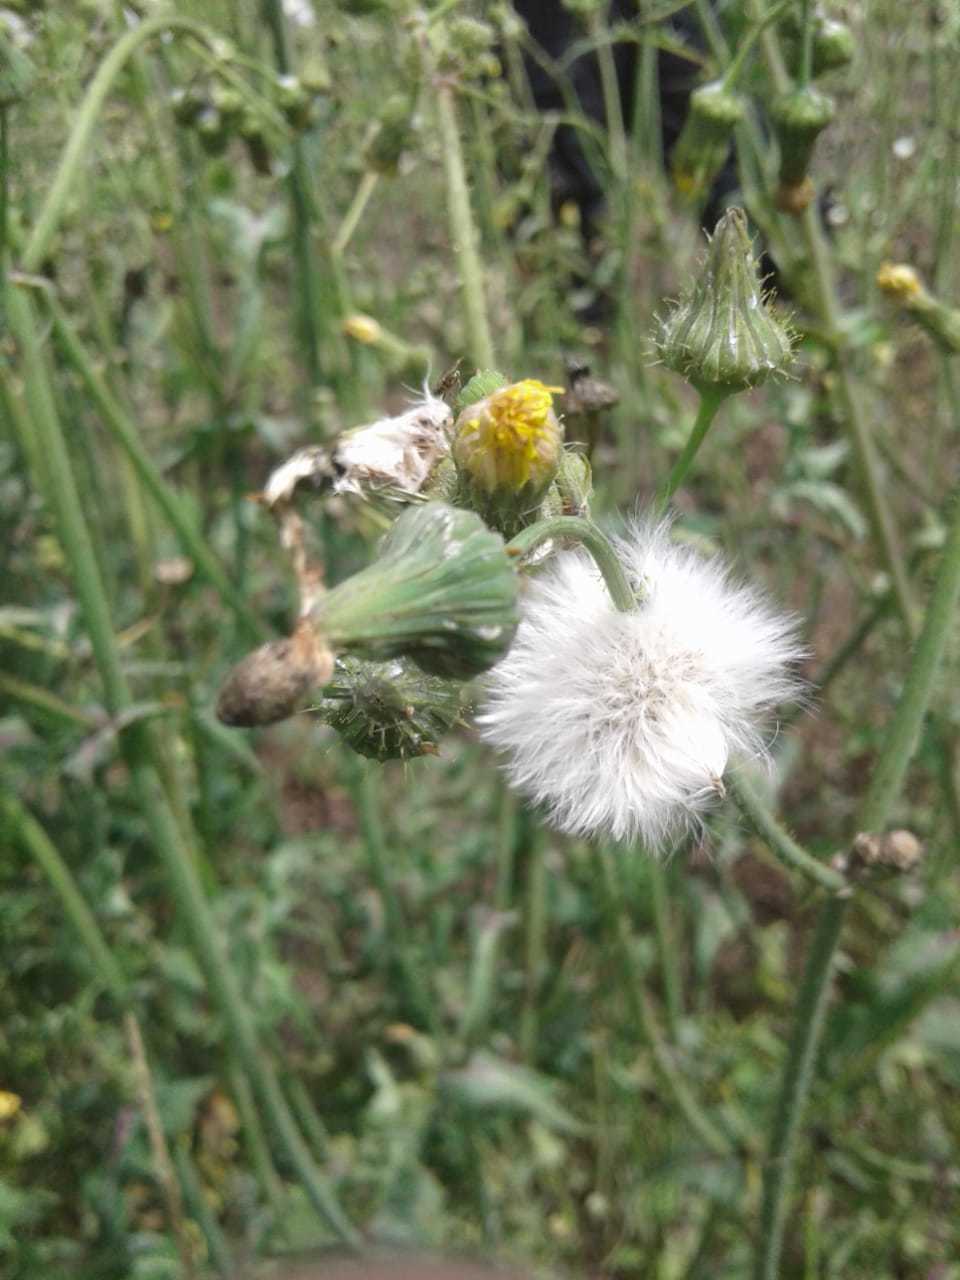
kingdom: Plantae
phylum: Tracheophyta
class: Magnoliopsida
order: Asterales
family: Asteraceae
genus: Sonchus
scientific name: Sonchus oleraceus
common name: Common sowthistle
